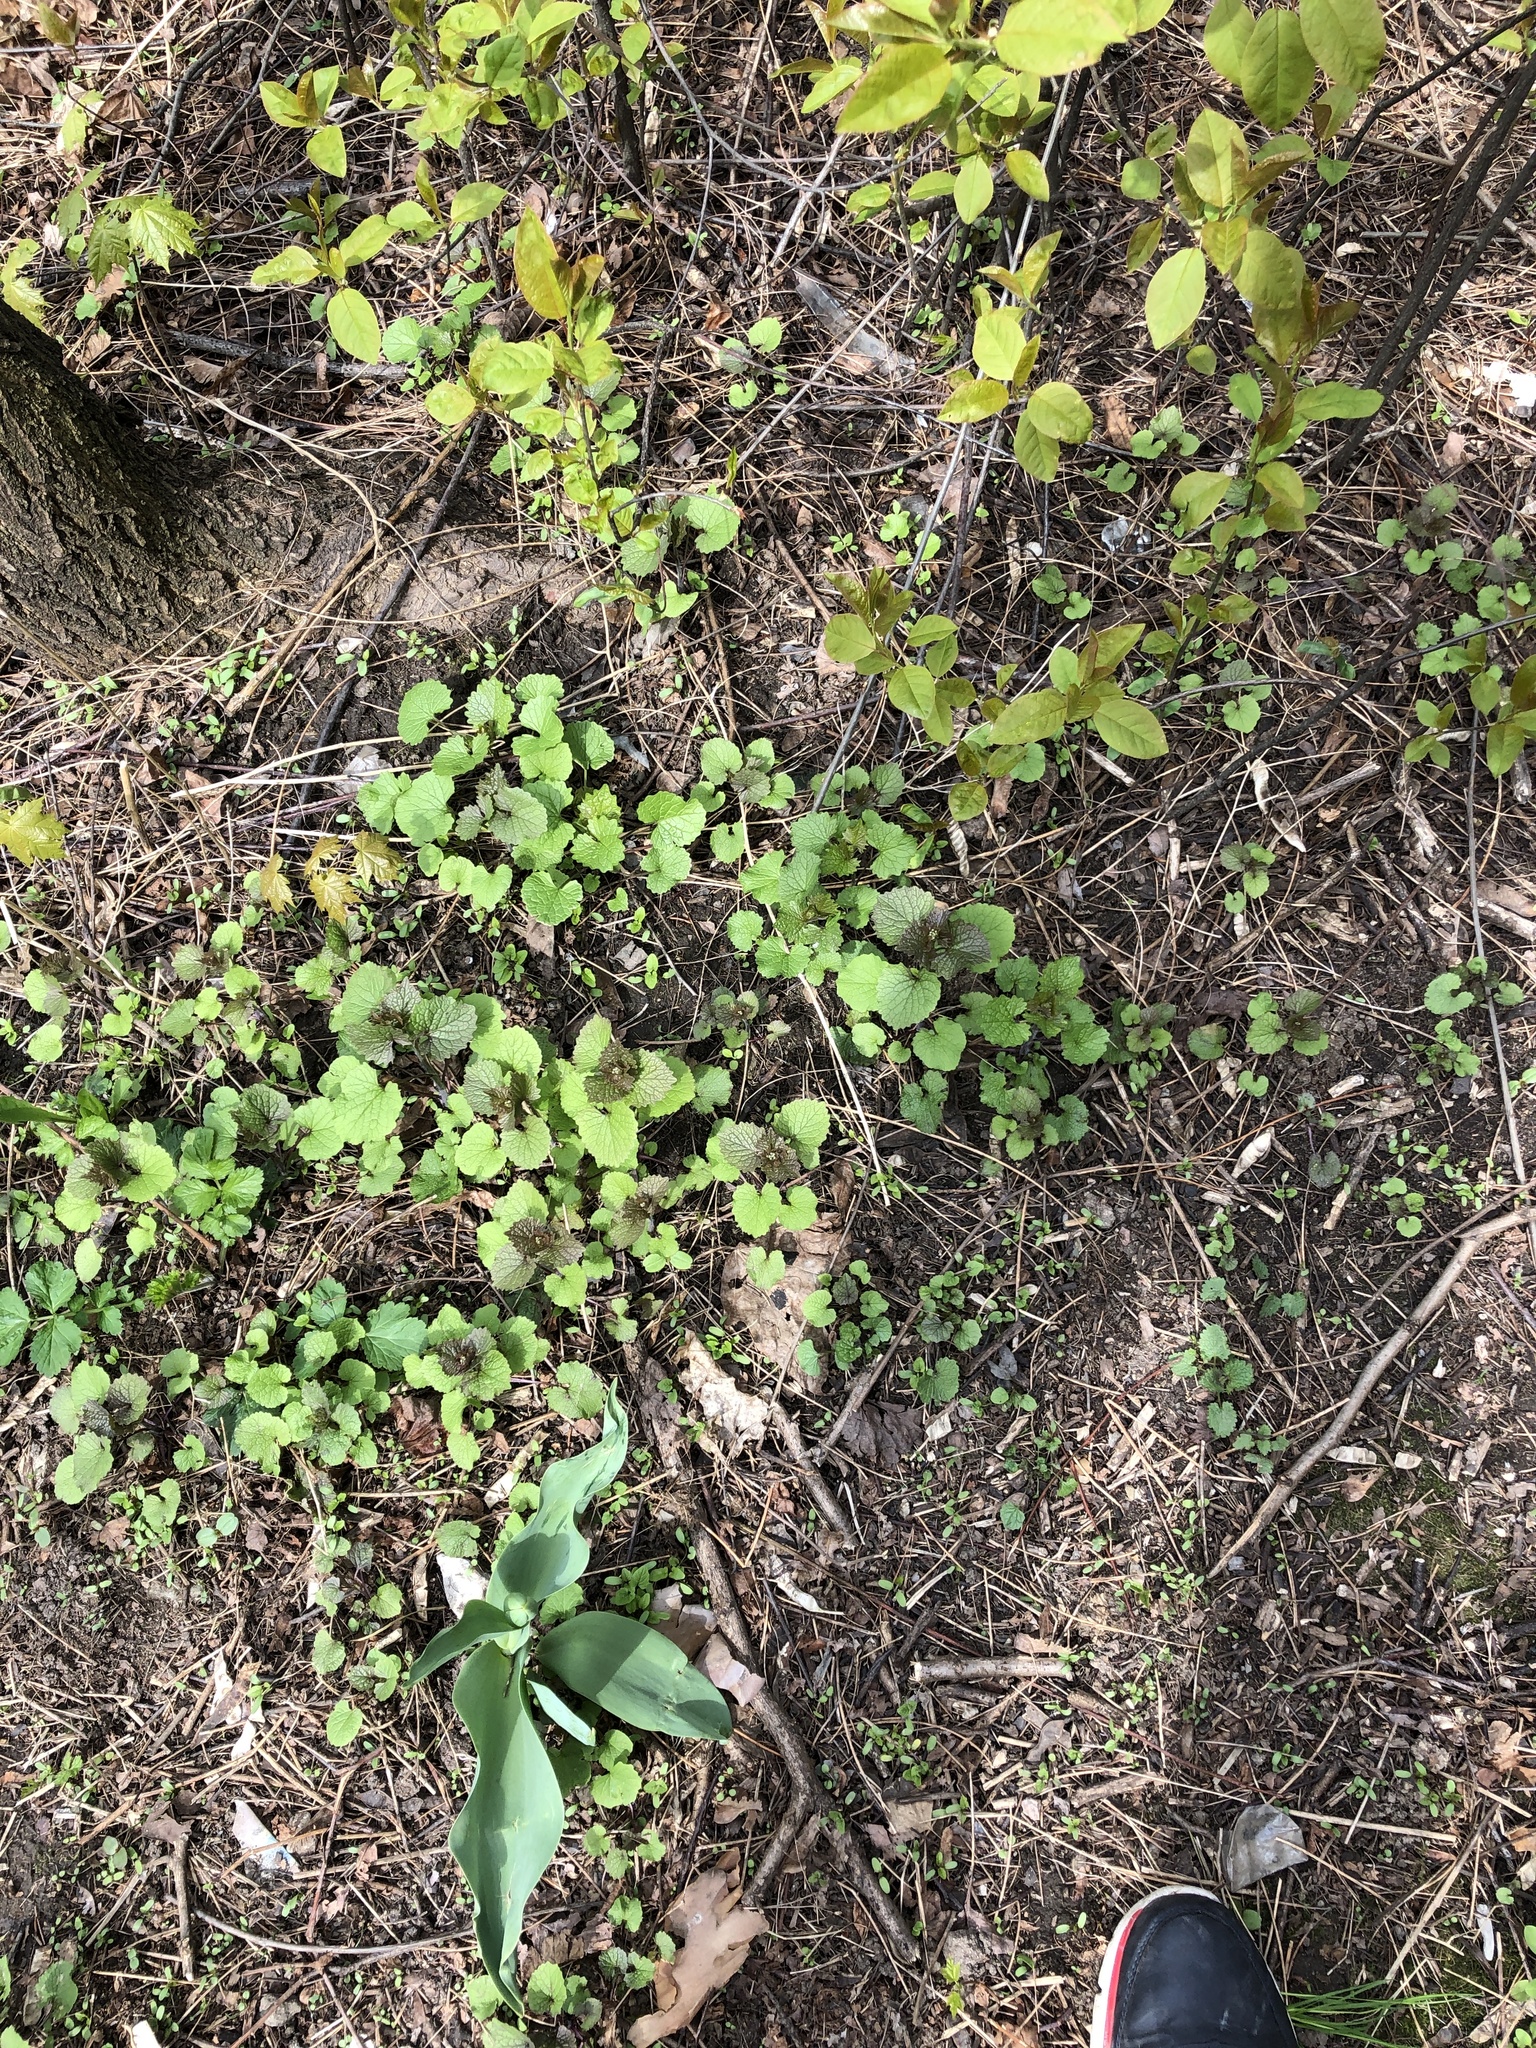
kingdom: Plantae
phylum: Tracheophyta
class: Magnoliopsida
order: Brassicales
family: Brassicaceae
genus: Alliaria
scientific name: Alliaria petiolata
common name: Garlic mustard
